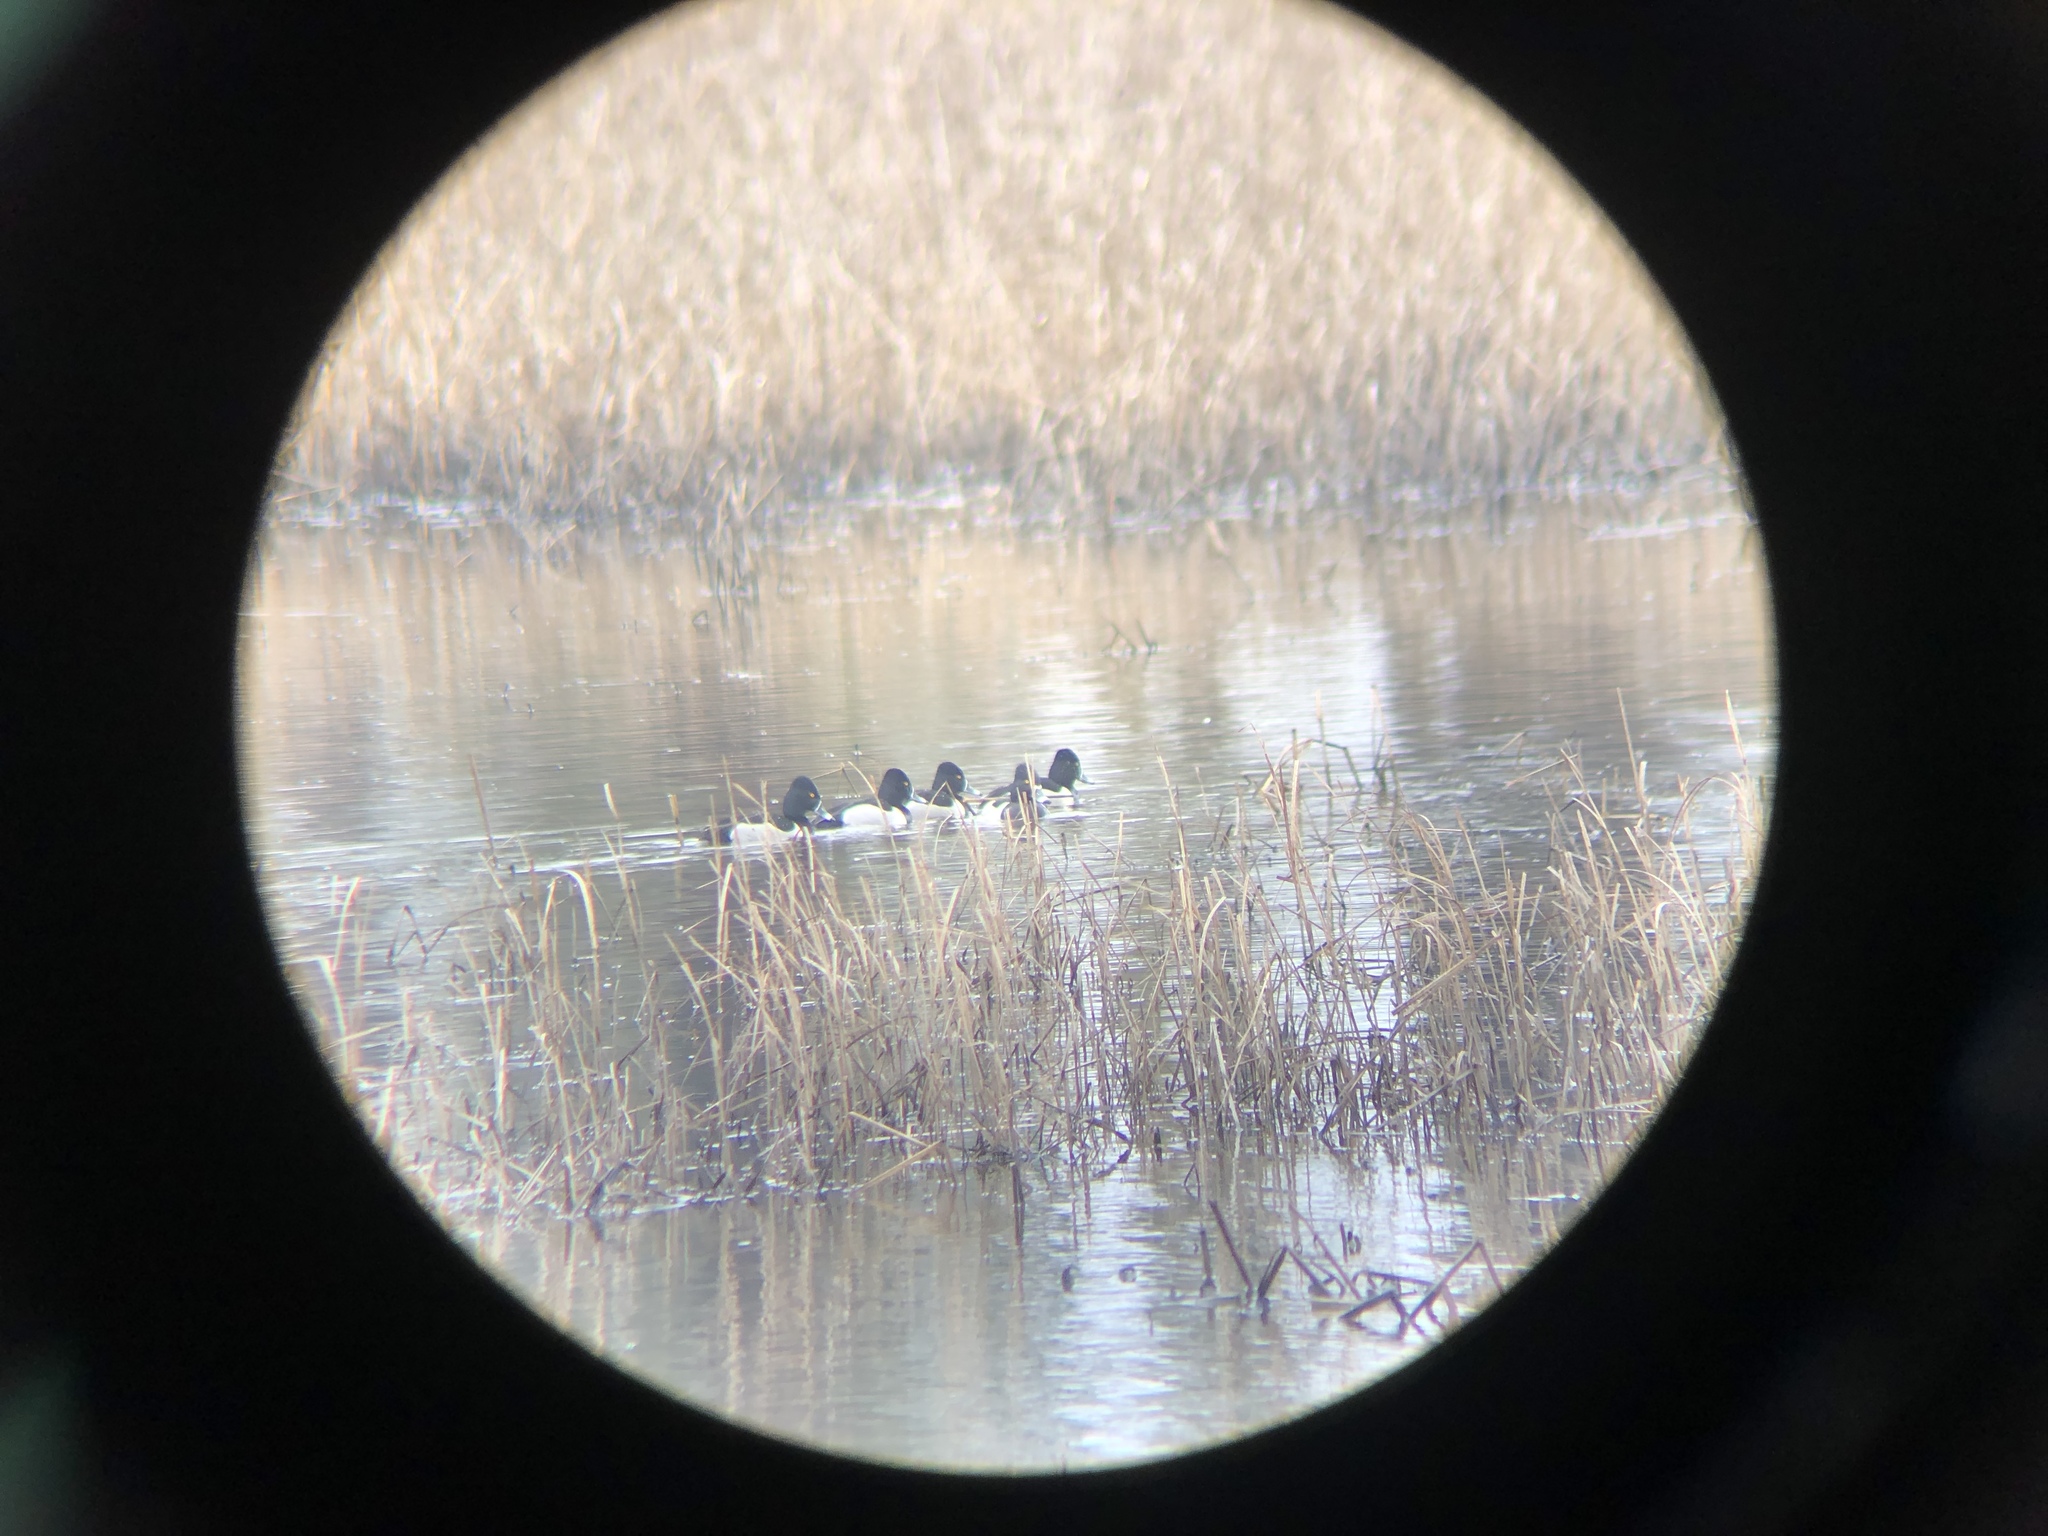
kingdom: Animalia
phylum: Chordata
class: Aves
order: Anseriformes
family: Anatidae
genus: Aythya
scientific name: Aythya collaris
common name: Ring-necked duck
